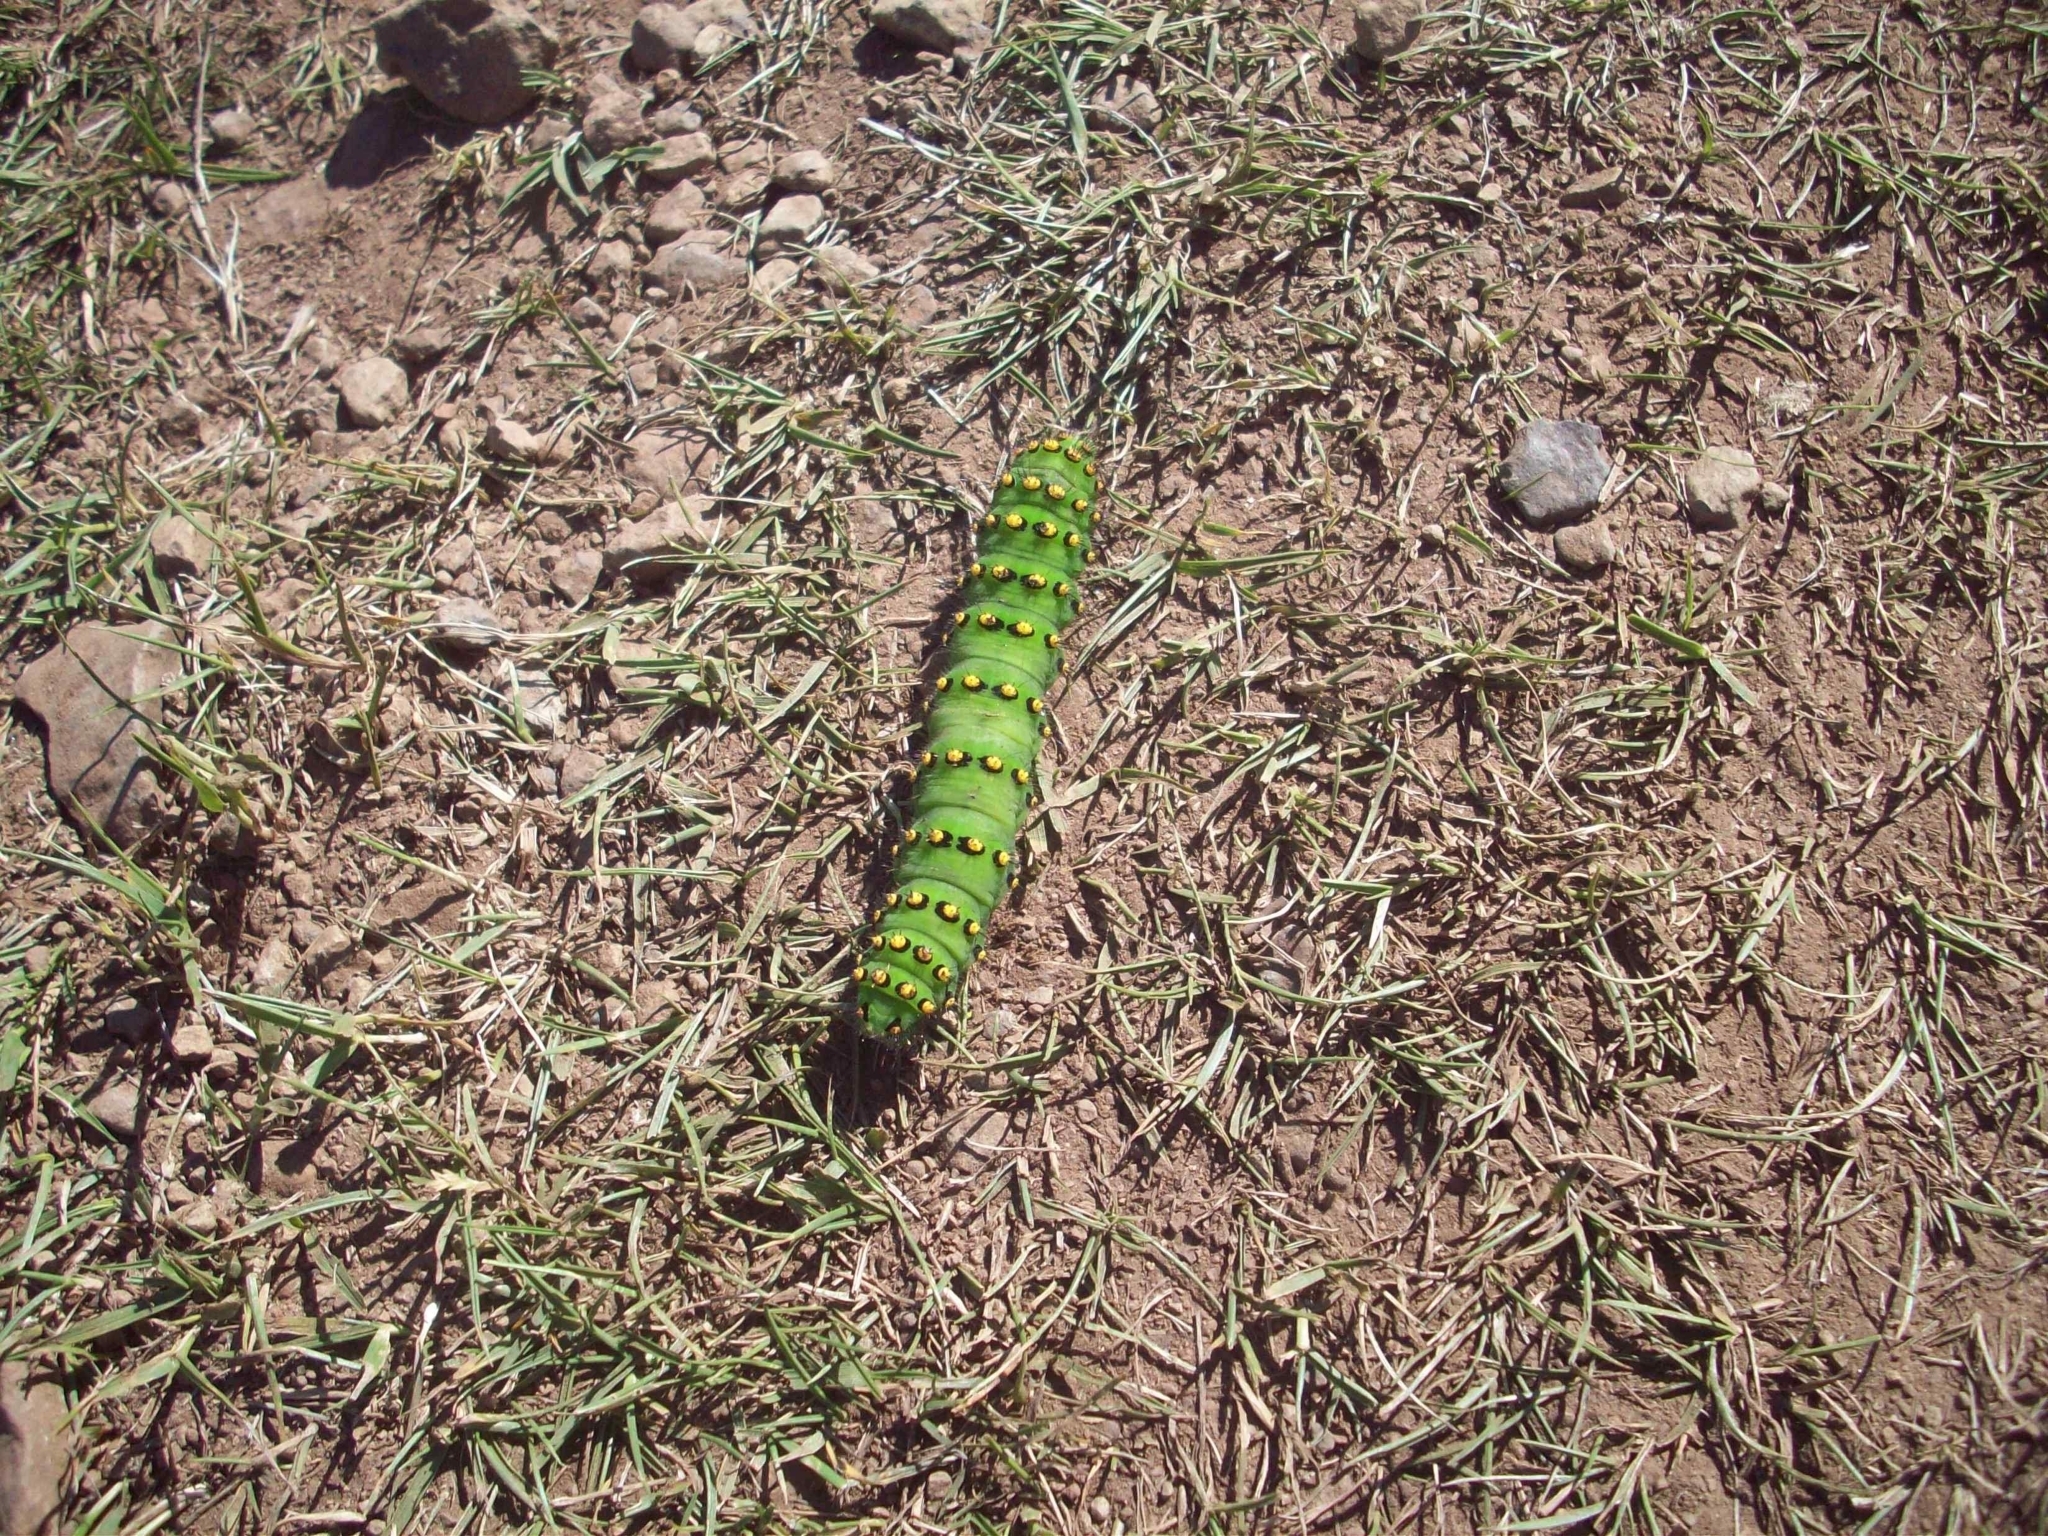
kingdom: Animalia
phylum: Arthropoda
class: Insecta
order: Lepidoptera
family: Saturniidae
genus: Saturnia
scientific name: Saturnia pavonia
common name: Emperor moth
